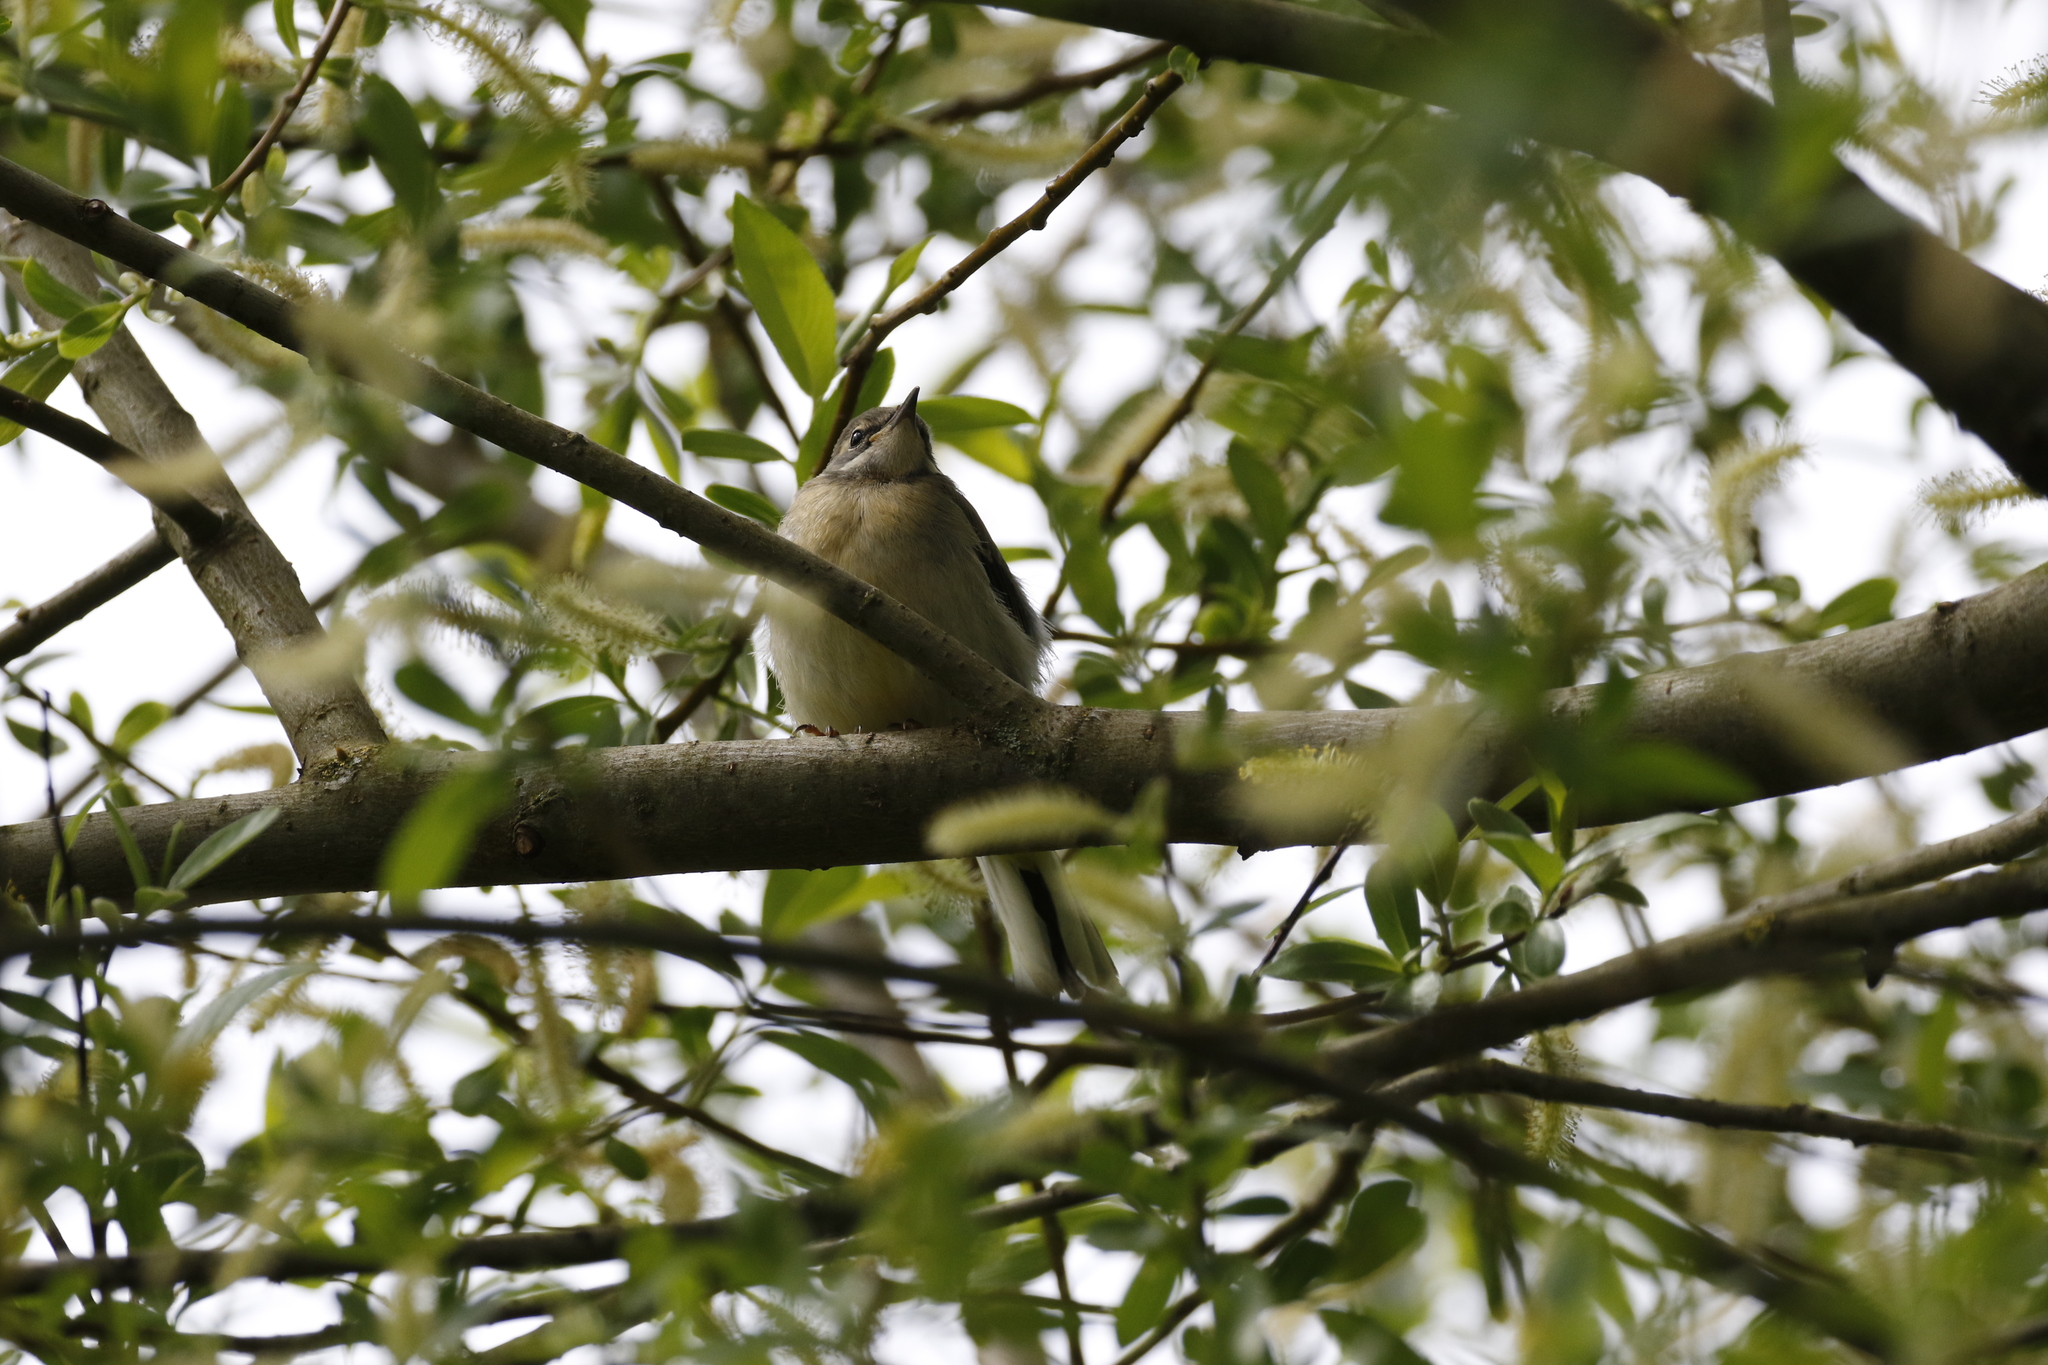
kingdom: Animalia
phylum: Chordata
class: Aves
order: Passeriformes
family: Motacillidae
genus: Motacilla
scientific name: Motacilla cinerea
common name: Grey wagtail
